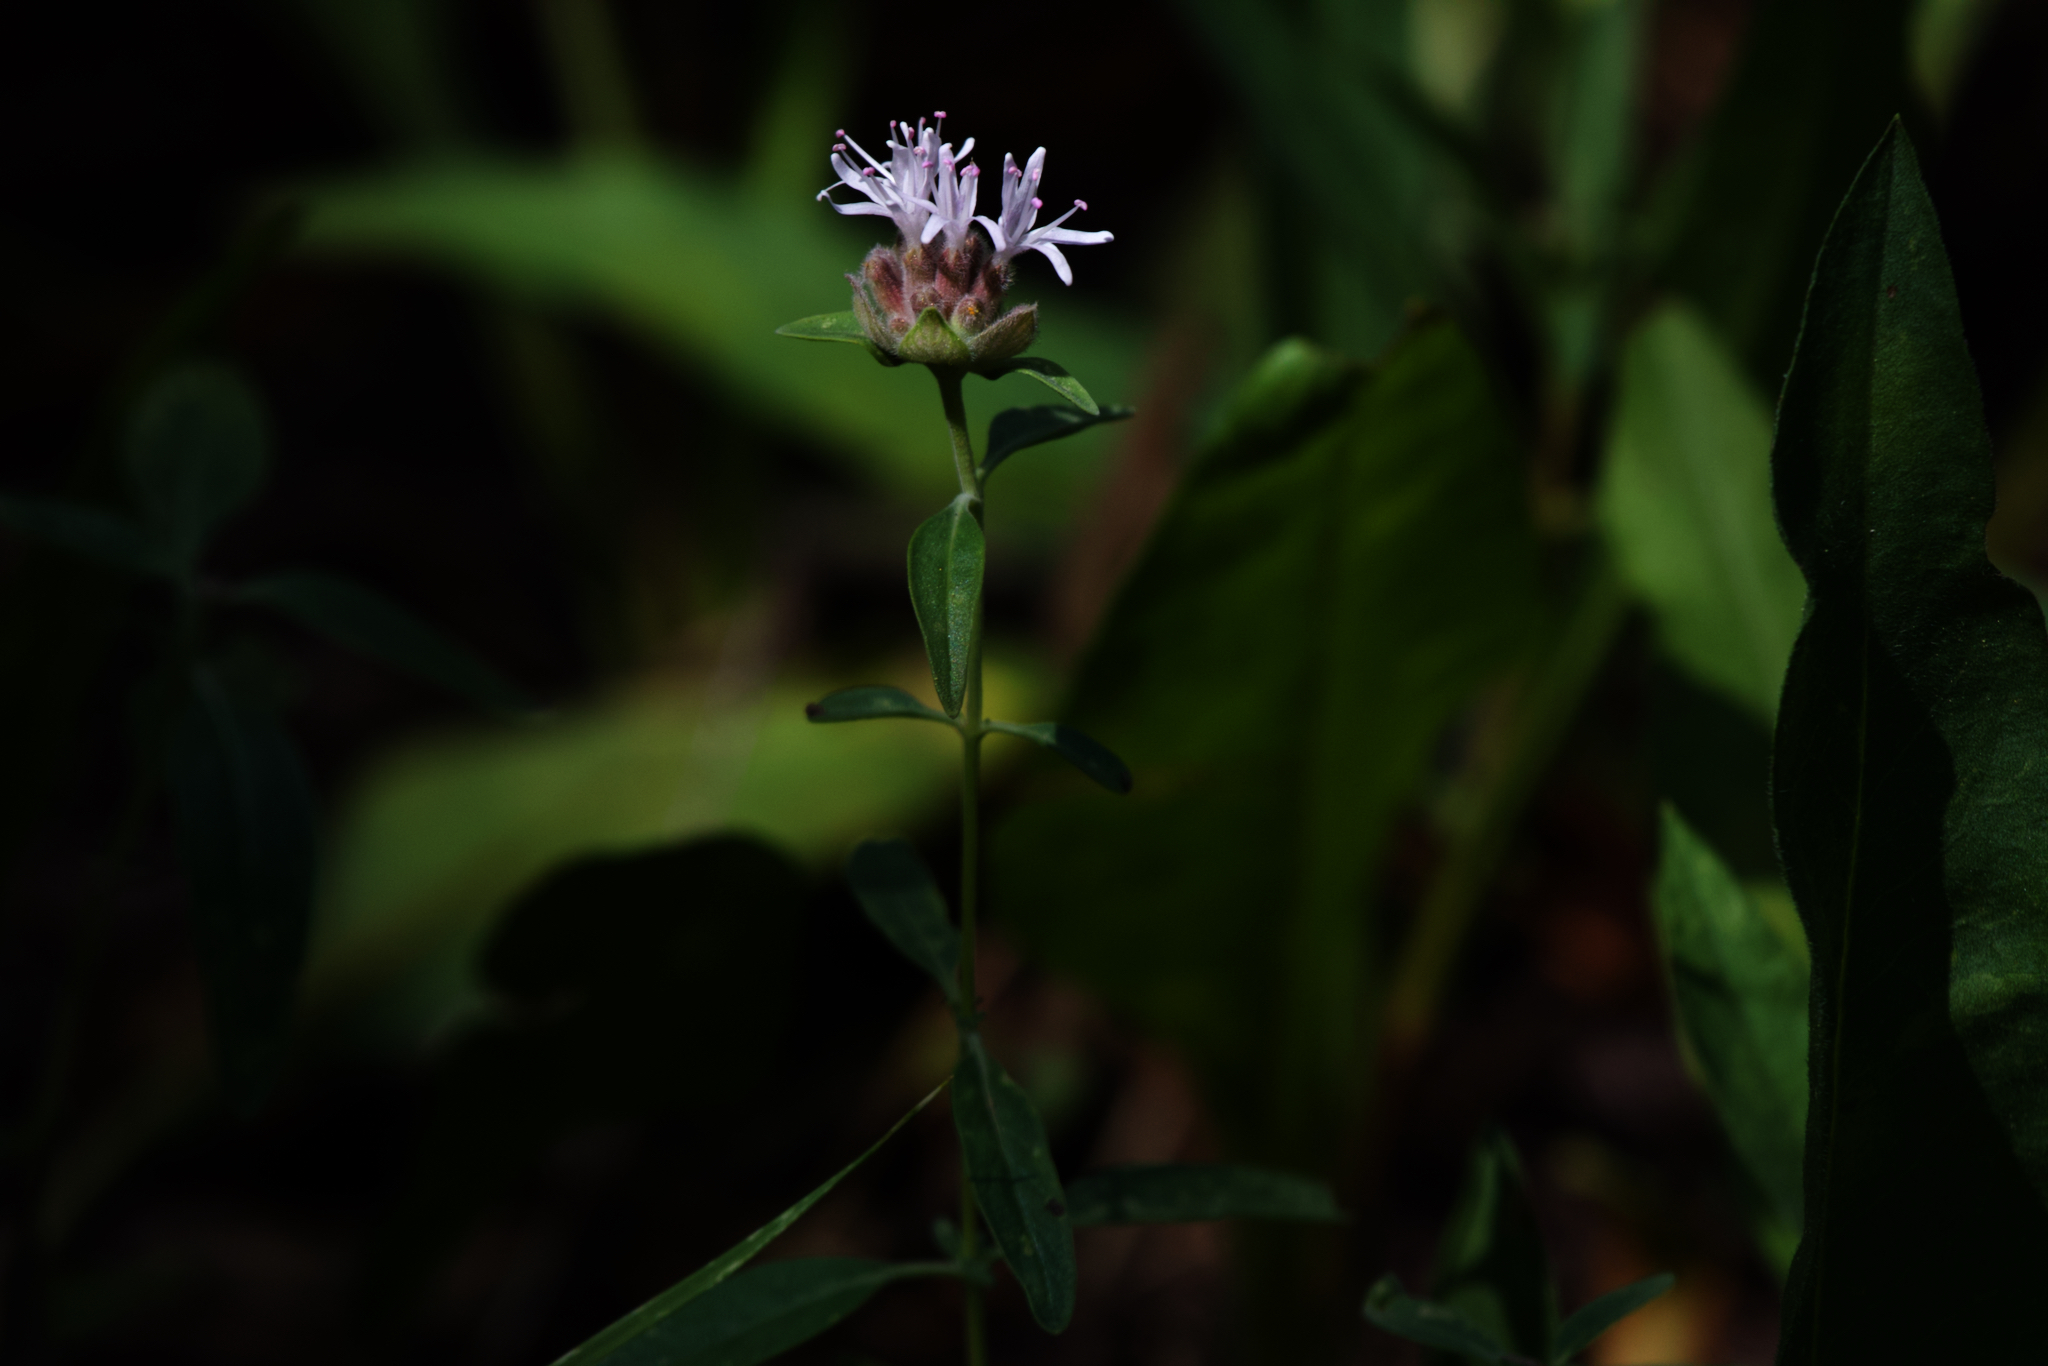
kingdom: Plantae
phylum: Tracheophyta
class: Magnoliopsida
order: Lamiales
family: Lamiaceae
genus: Monardella
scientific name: Monardella odoratissima
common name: Pacific monardella
